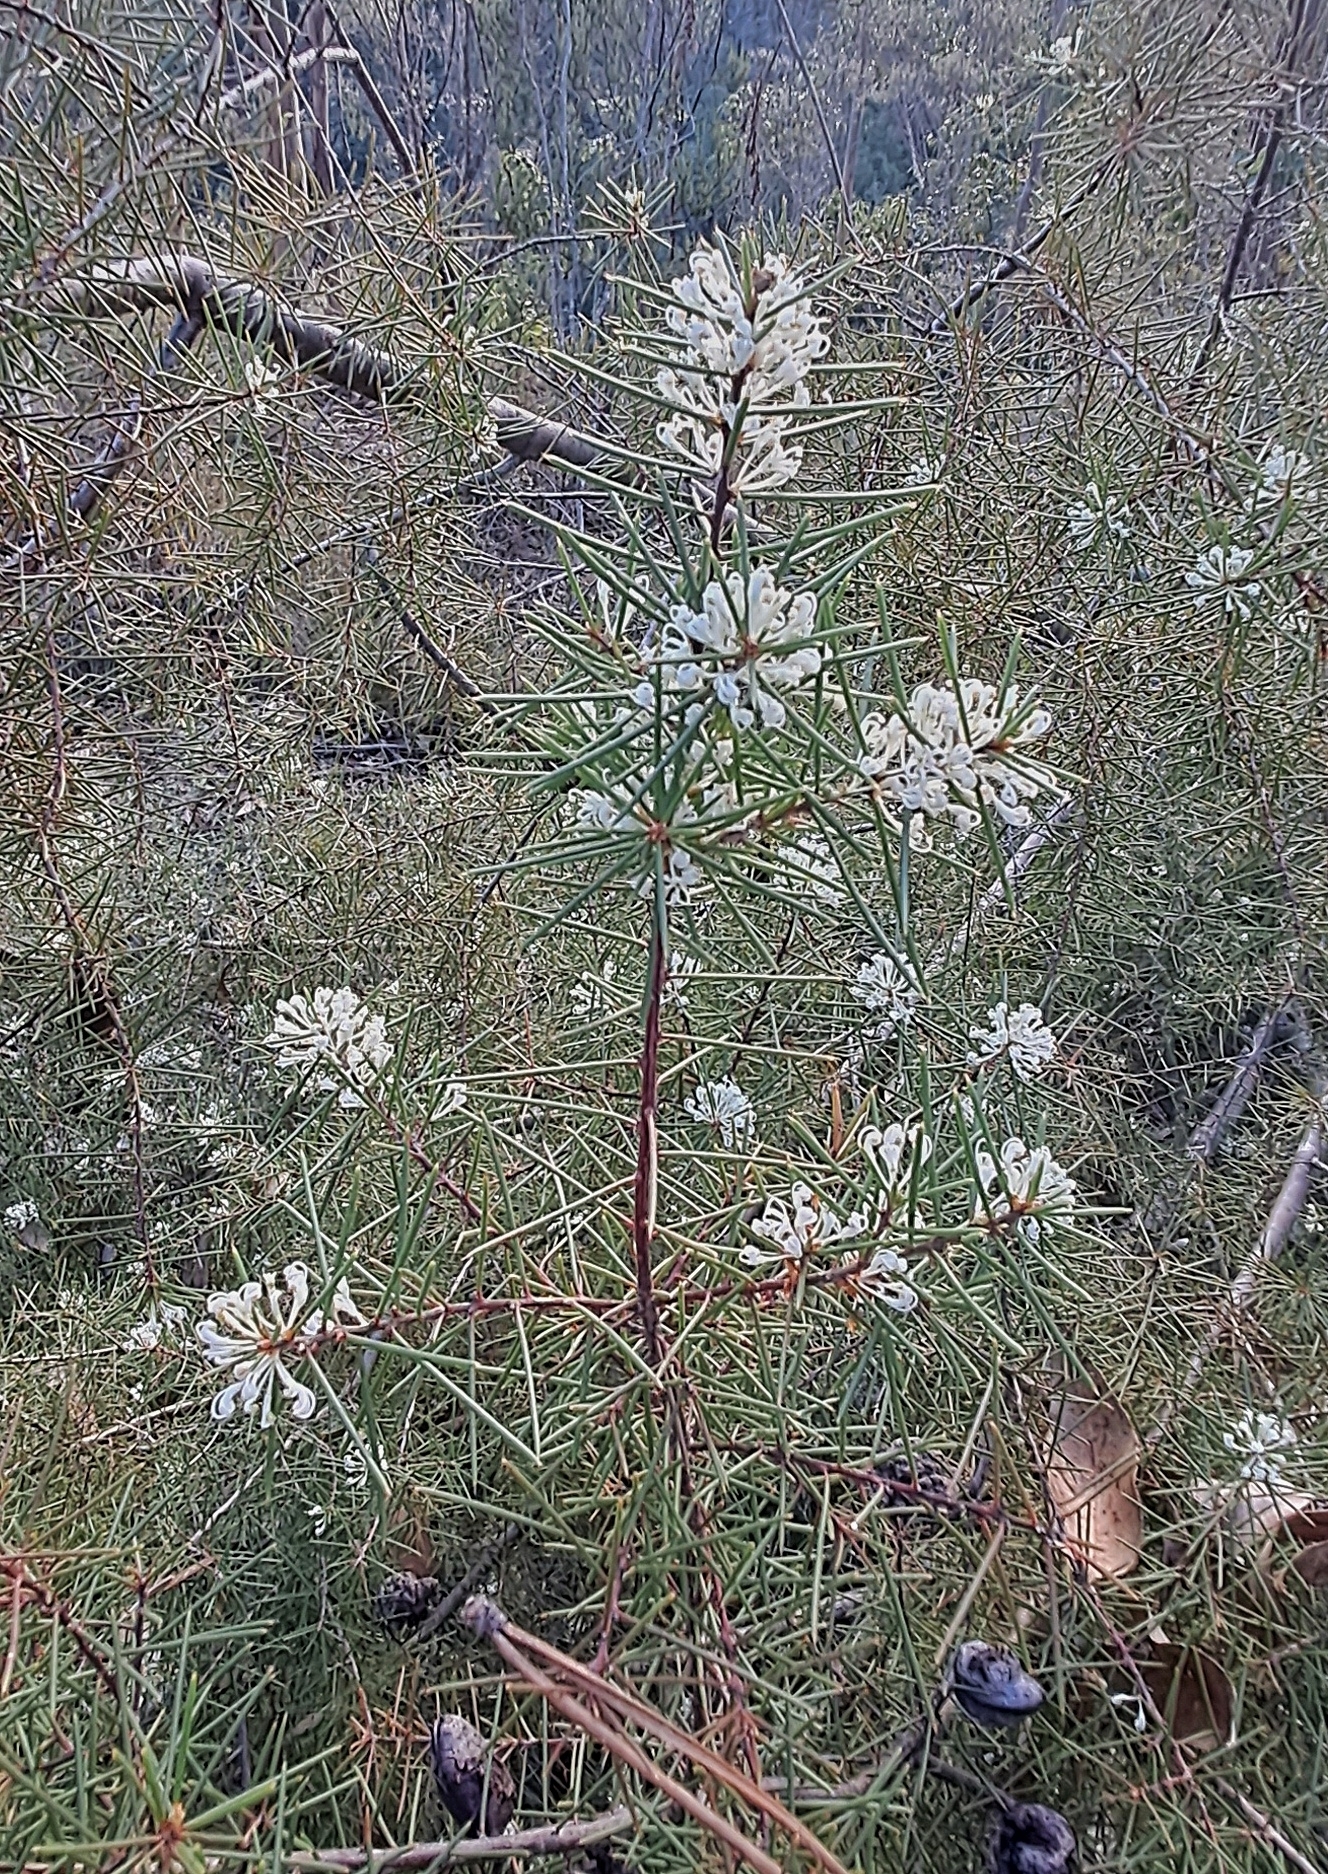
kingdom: Plantae
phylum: Tracheophyta
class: Magnoliopsida
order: Proteales
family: Proteaceae
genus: Hakea
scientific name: Hakea sericea
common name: Needle bush
